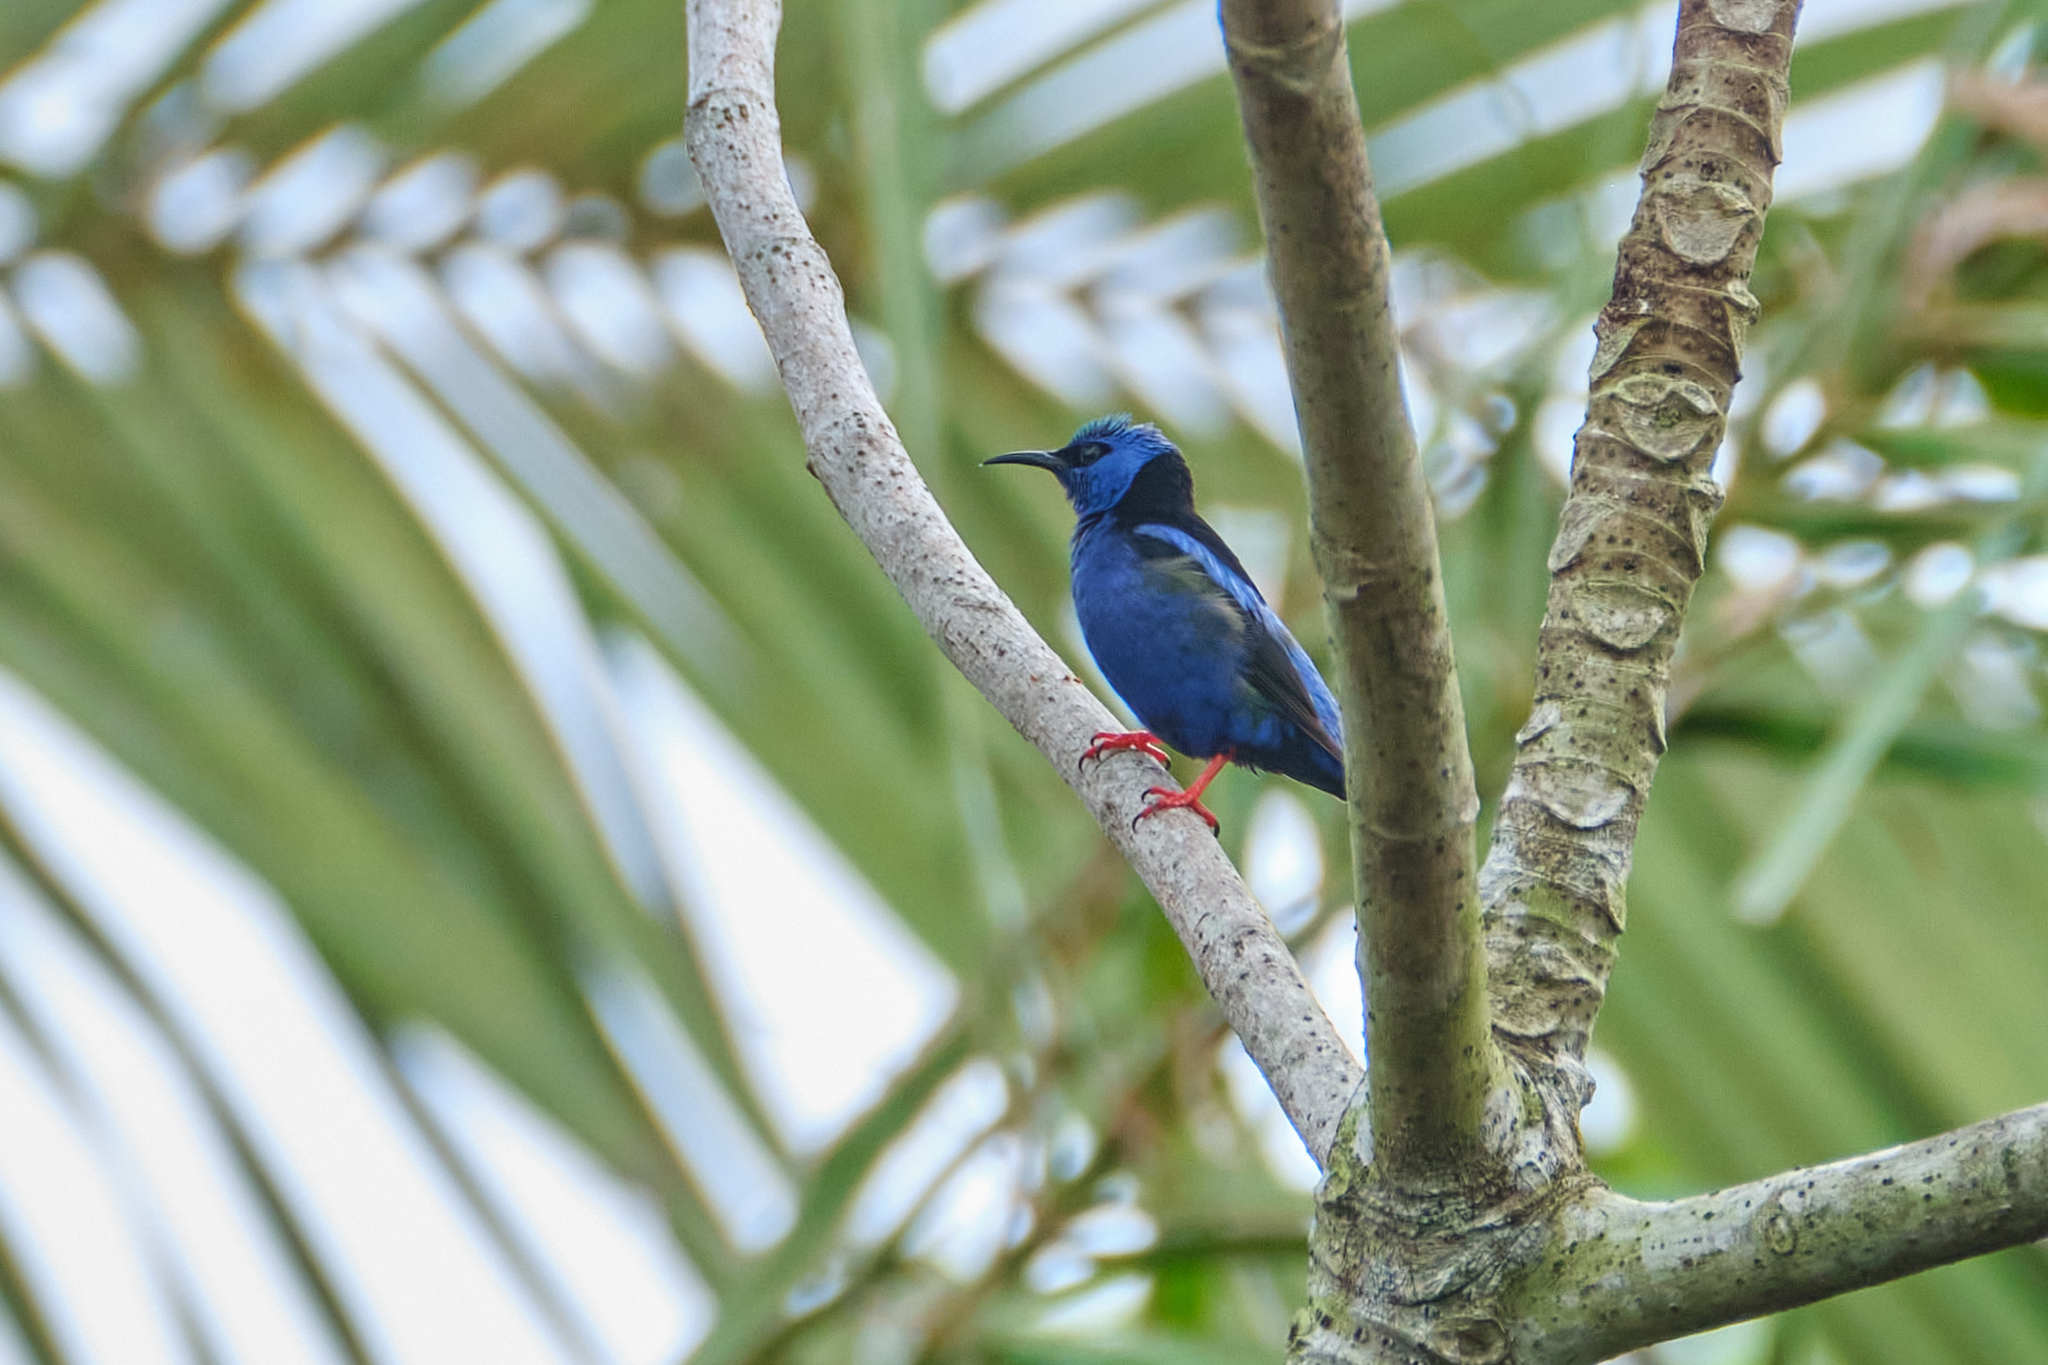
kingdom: Animalia
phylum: Chordata
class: Aves
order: Passeriformes
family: Thraupidae
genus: Cyanerpes
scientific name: Cyanerpes cyaneus
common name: Red-legged honeycreeper
